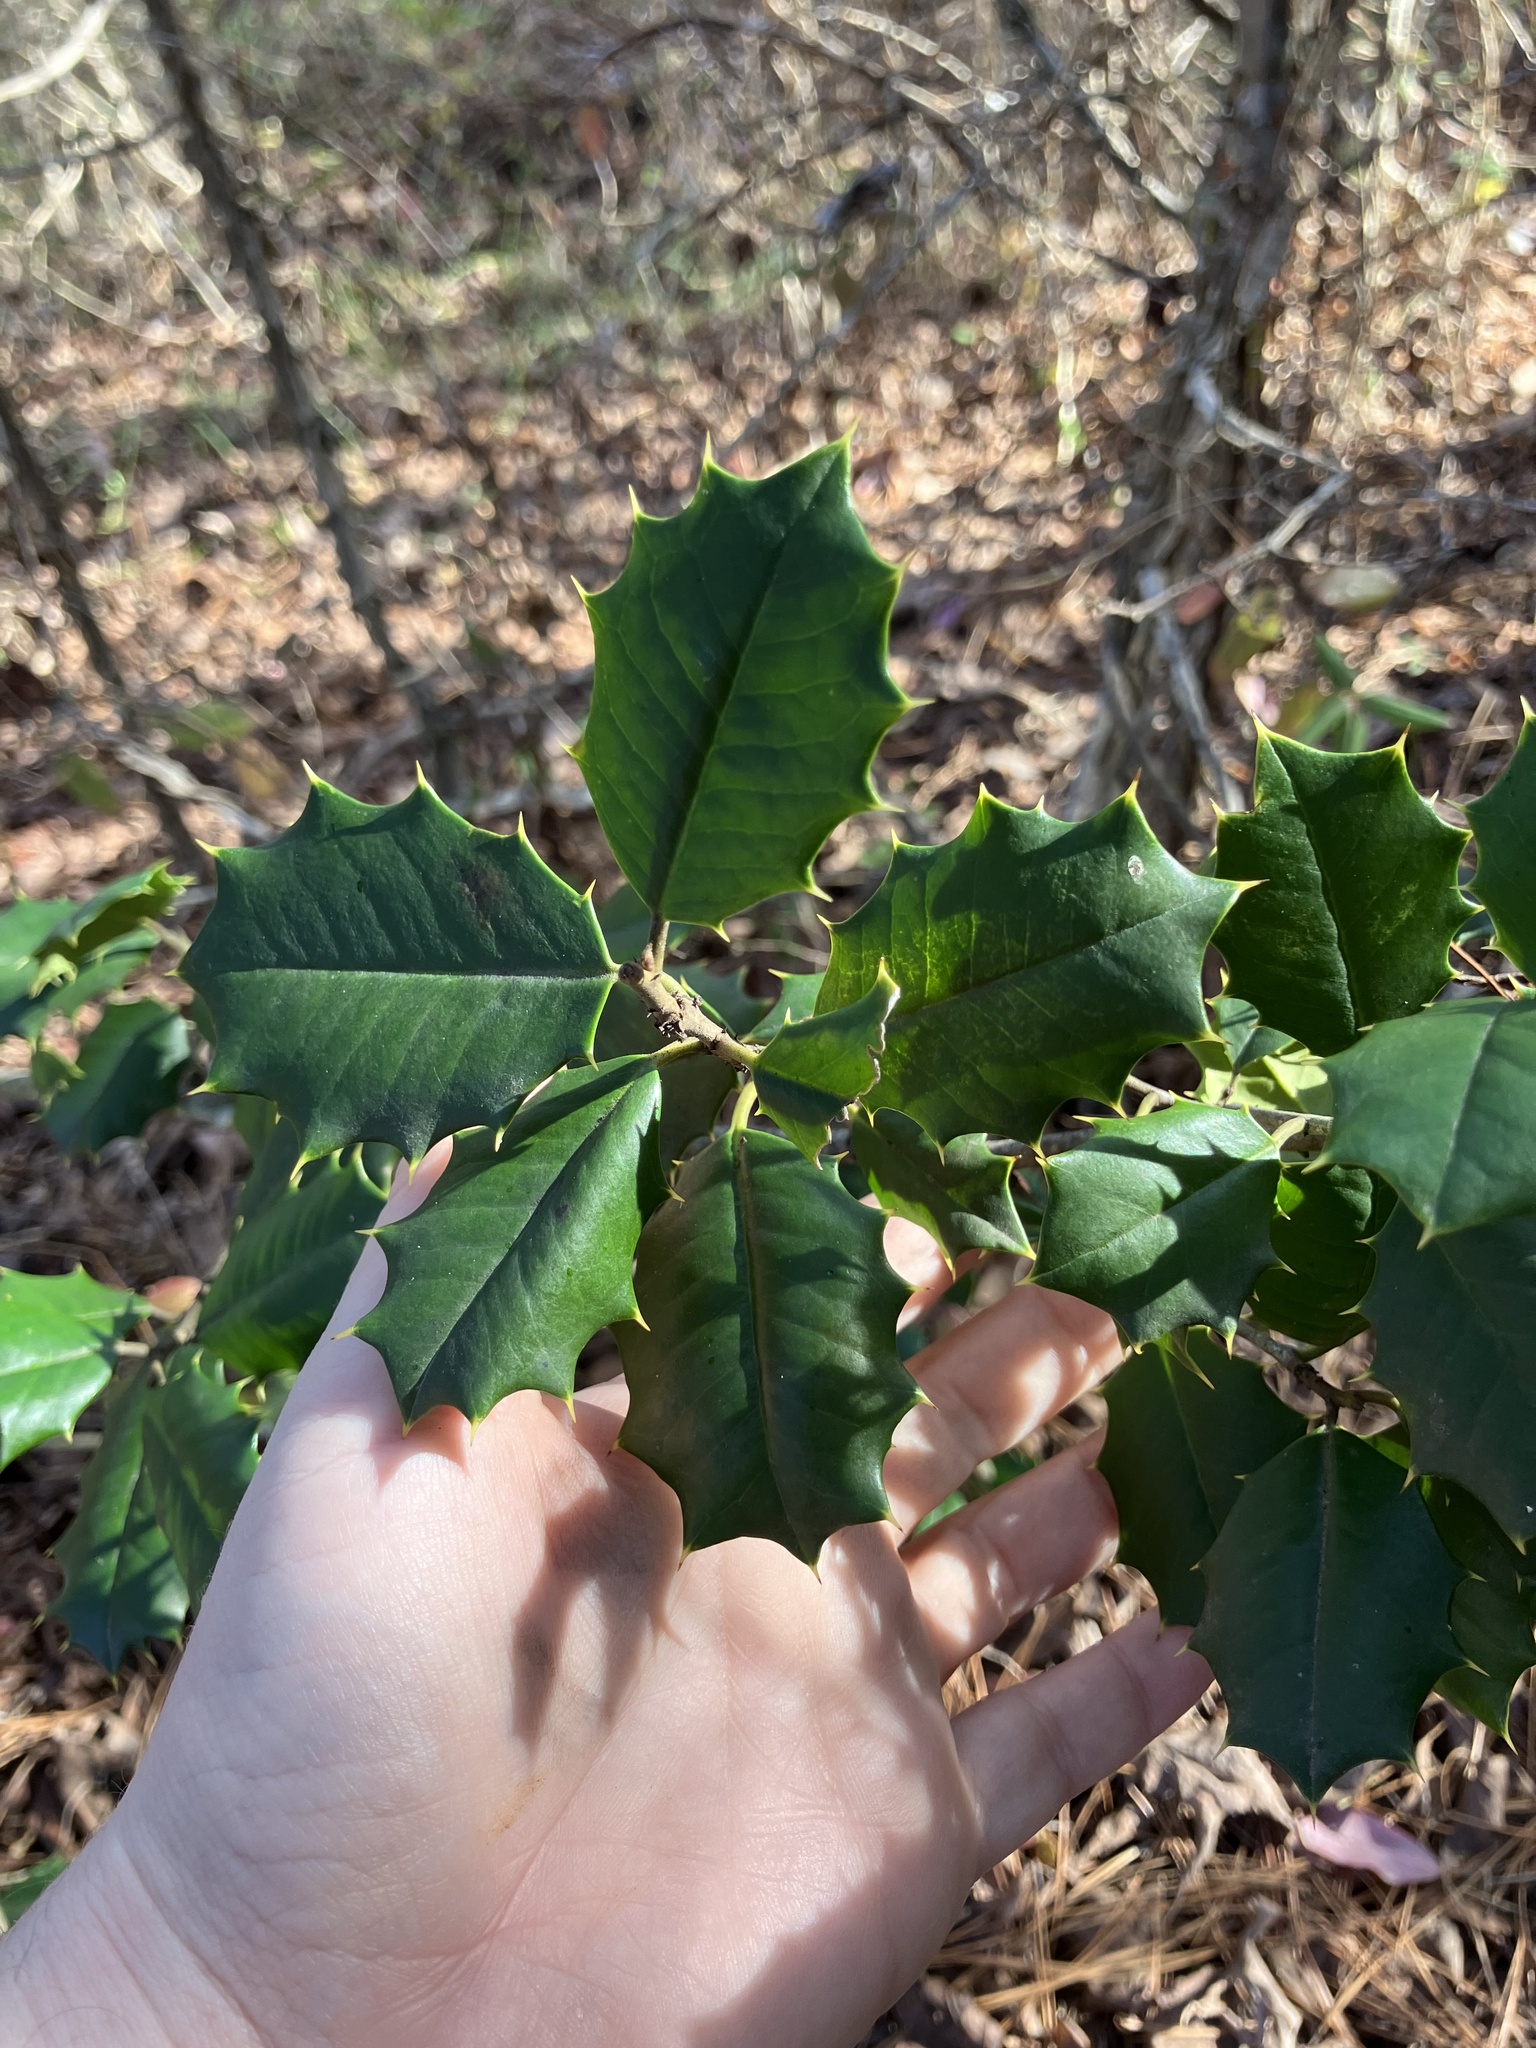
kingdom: Plantae
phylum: Tracheophyta
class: Magnoliopsida
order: Aquifoliales
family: Aquifoliaceae
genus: Ilex
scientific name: Ilex opaca
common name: American holly
